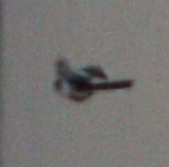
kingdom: Animalia
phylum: Chordata
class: Aves
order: Passeriformes
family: Aegithalidae
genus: Aegithalos
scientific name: Aegithalos caudatus
